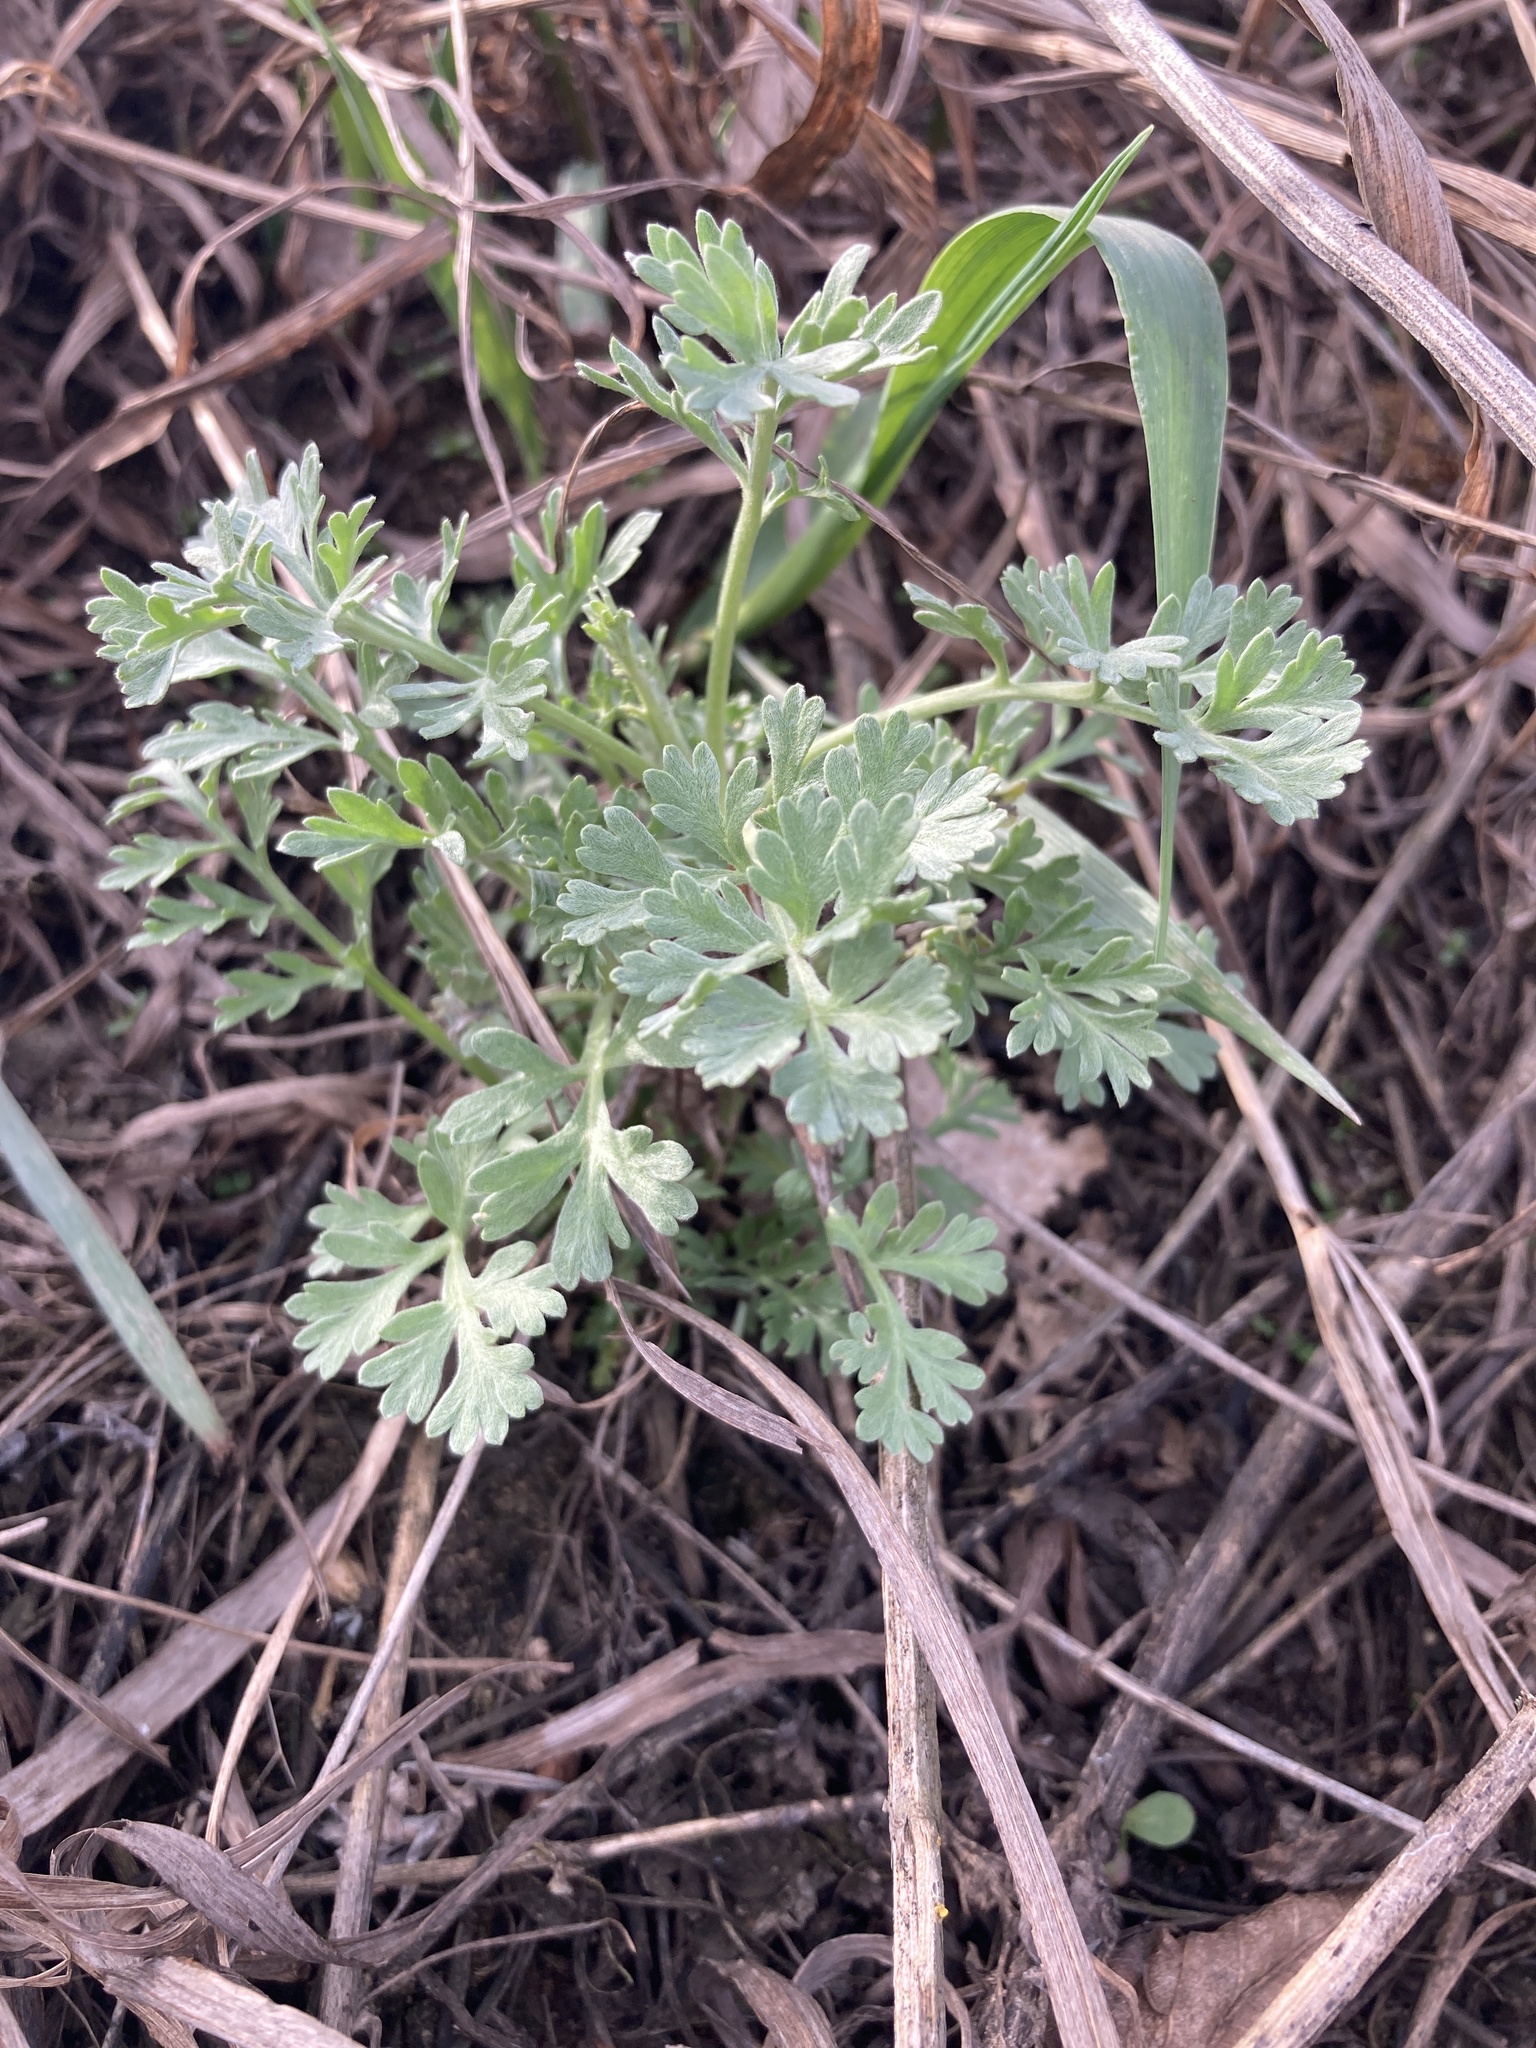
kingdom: Plantae
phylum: Tracheophyta
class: Magnoliopsida
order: Asterales
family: Asteraceae
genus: Artemisia
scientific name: Artemisia absinthium
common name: Wormwood
